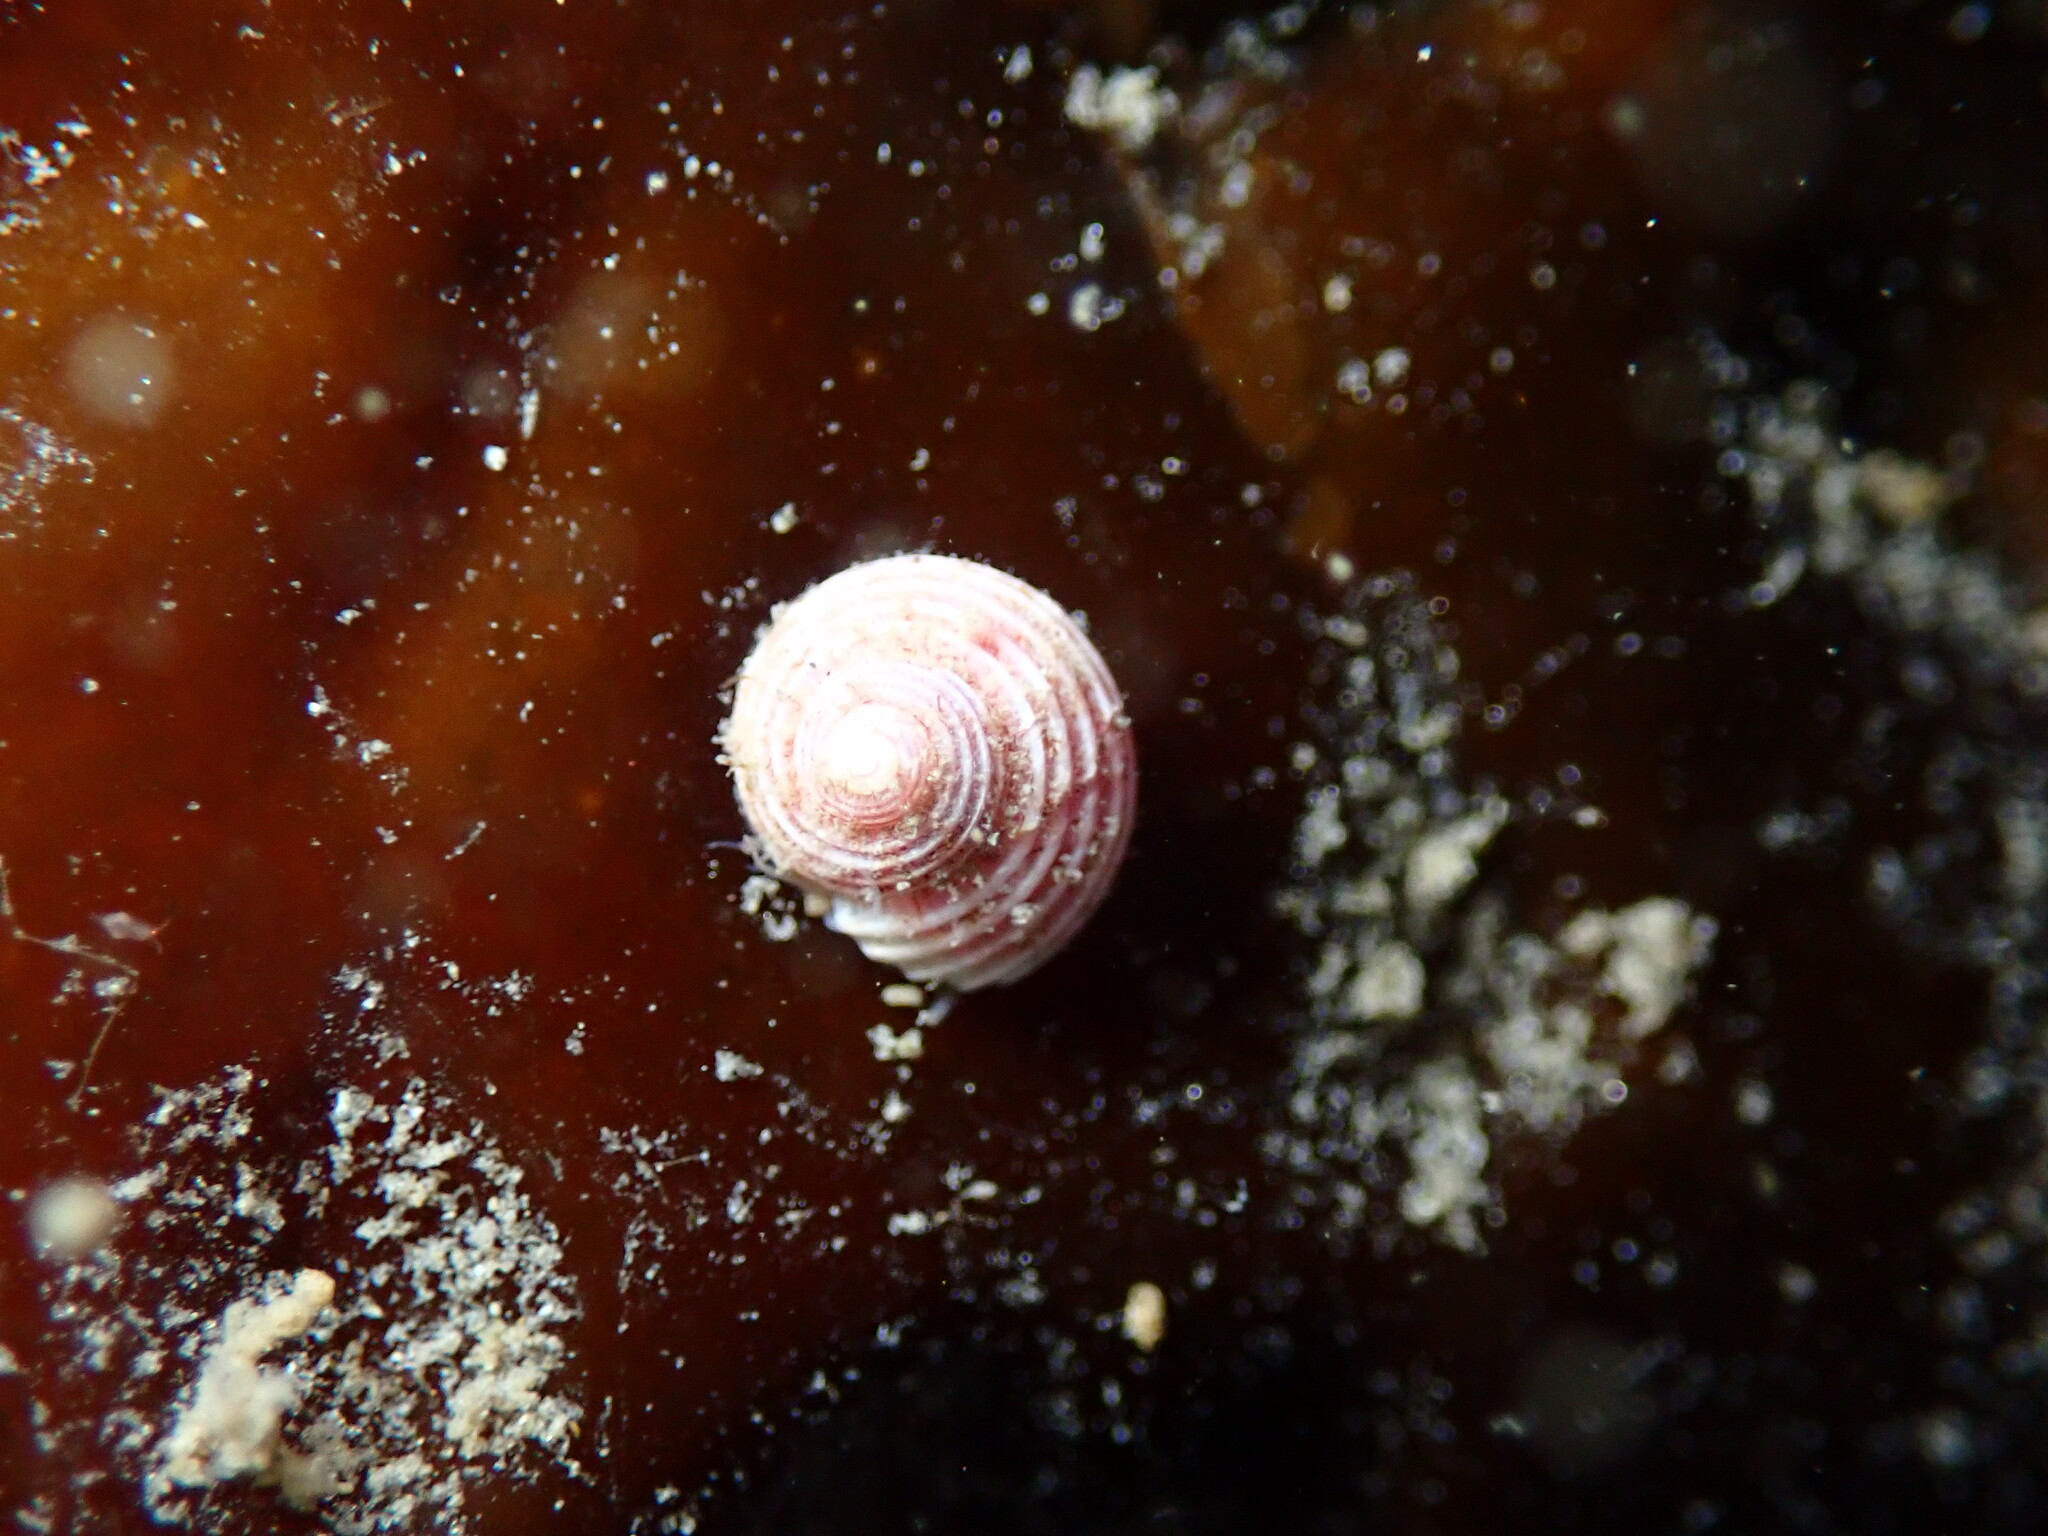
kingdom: Animalia
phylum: Mollusca
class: Gastropoda
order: Trochida
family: Margaritidae
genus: Margarites
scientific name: Margarites pupillus
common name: Puppet margarite
